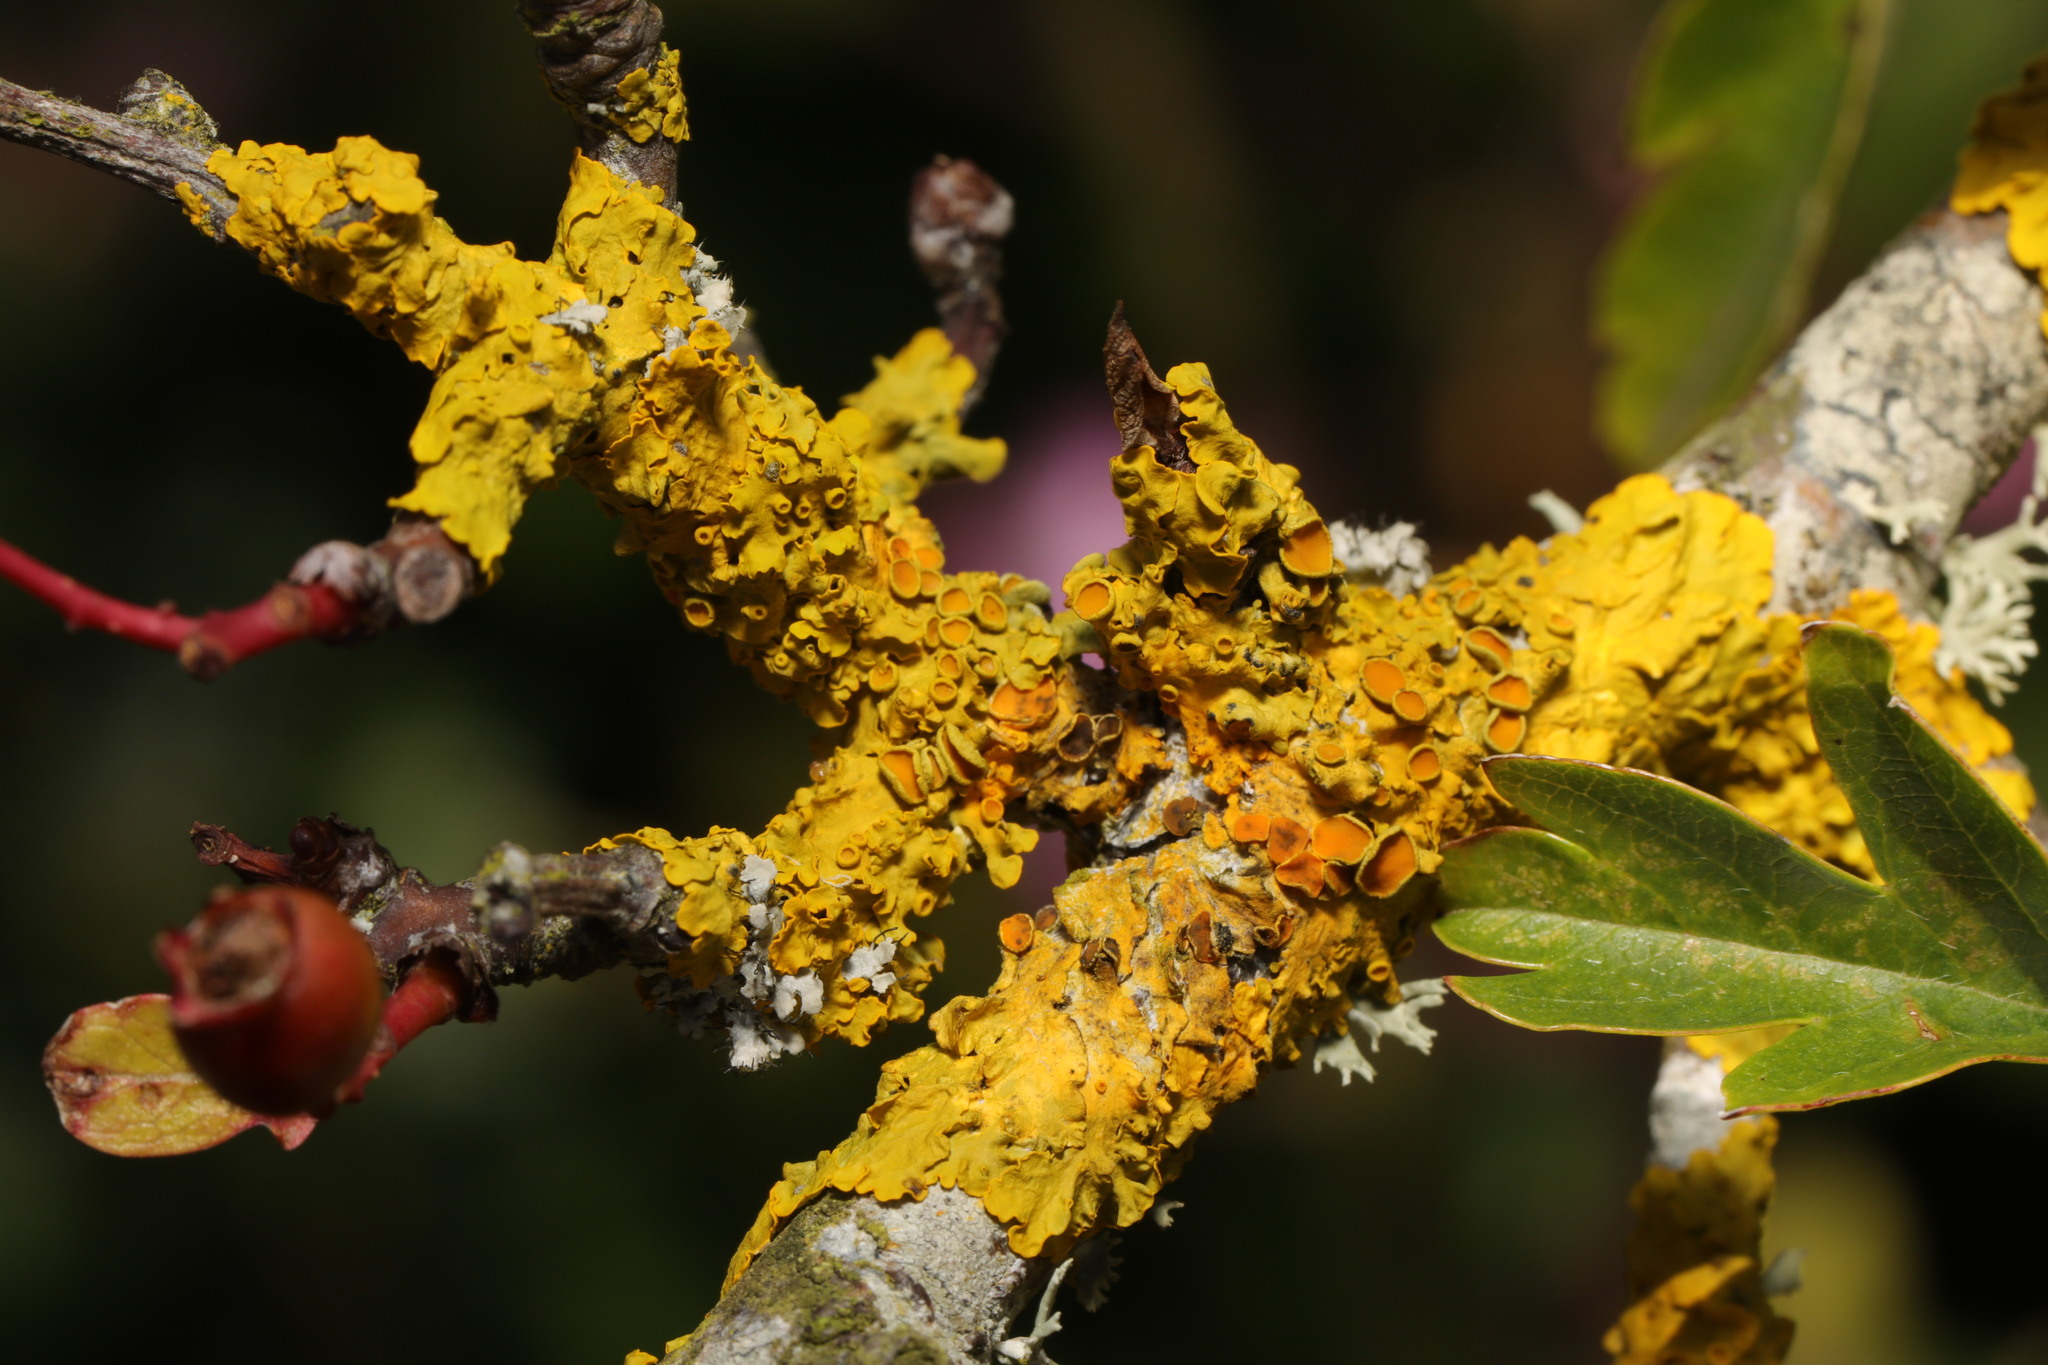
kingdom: Fungi
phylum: Ascomycota
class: Lecanoromycetes
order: Teloschistales
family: Teloschistaceae
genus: Xanthoria
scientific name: Xanthoria parietina
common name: Common orange lichen
